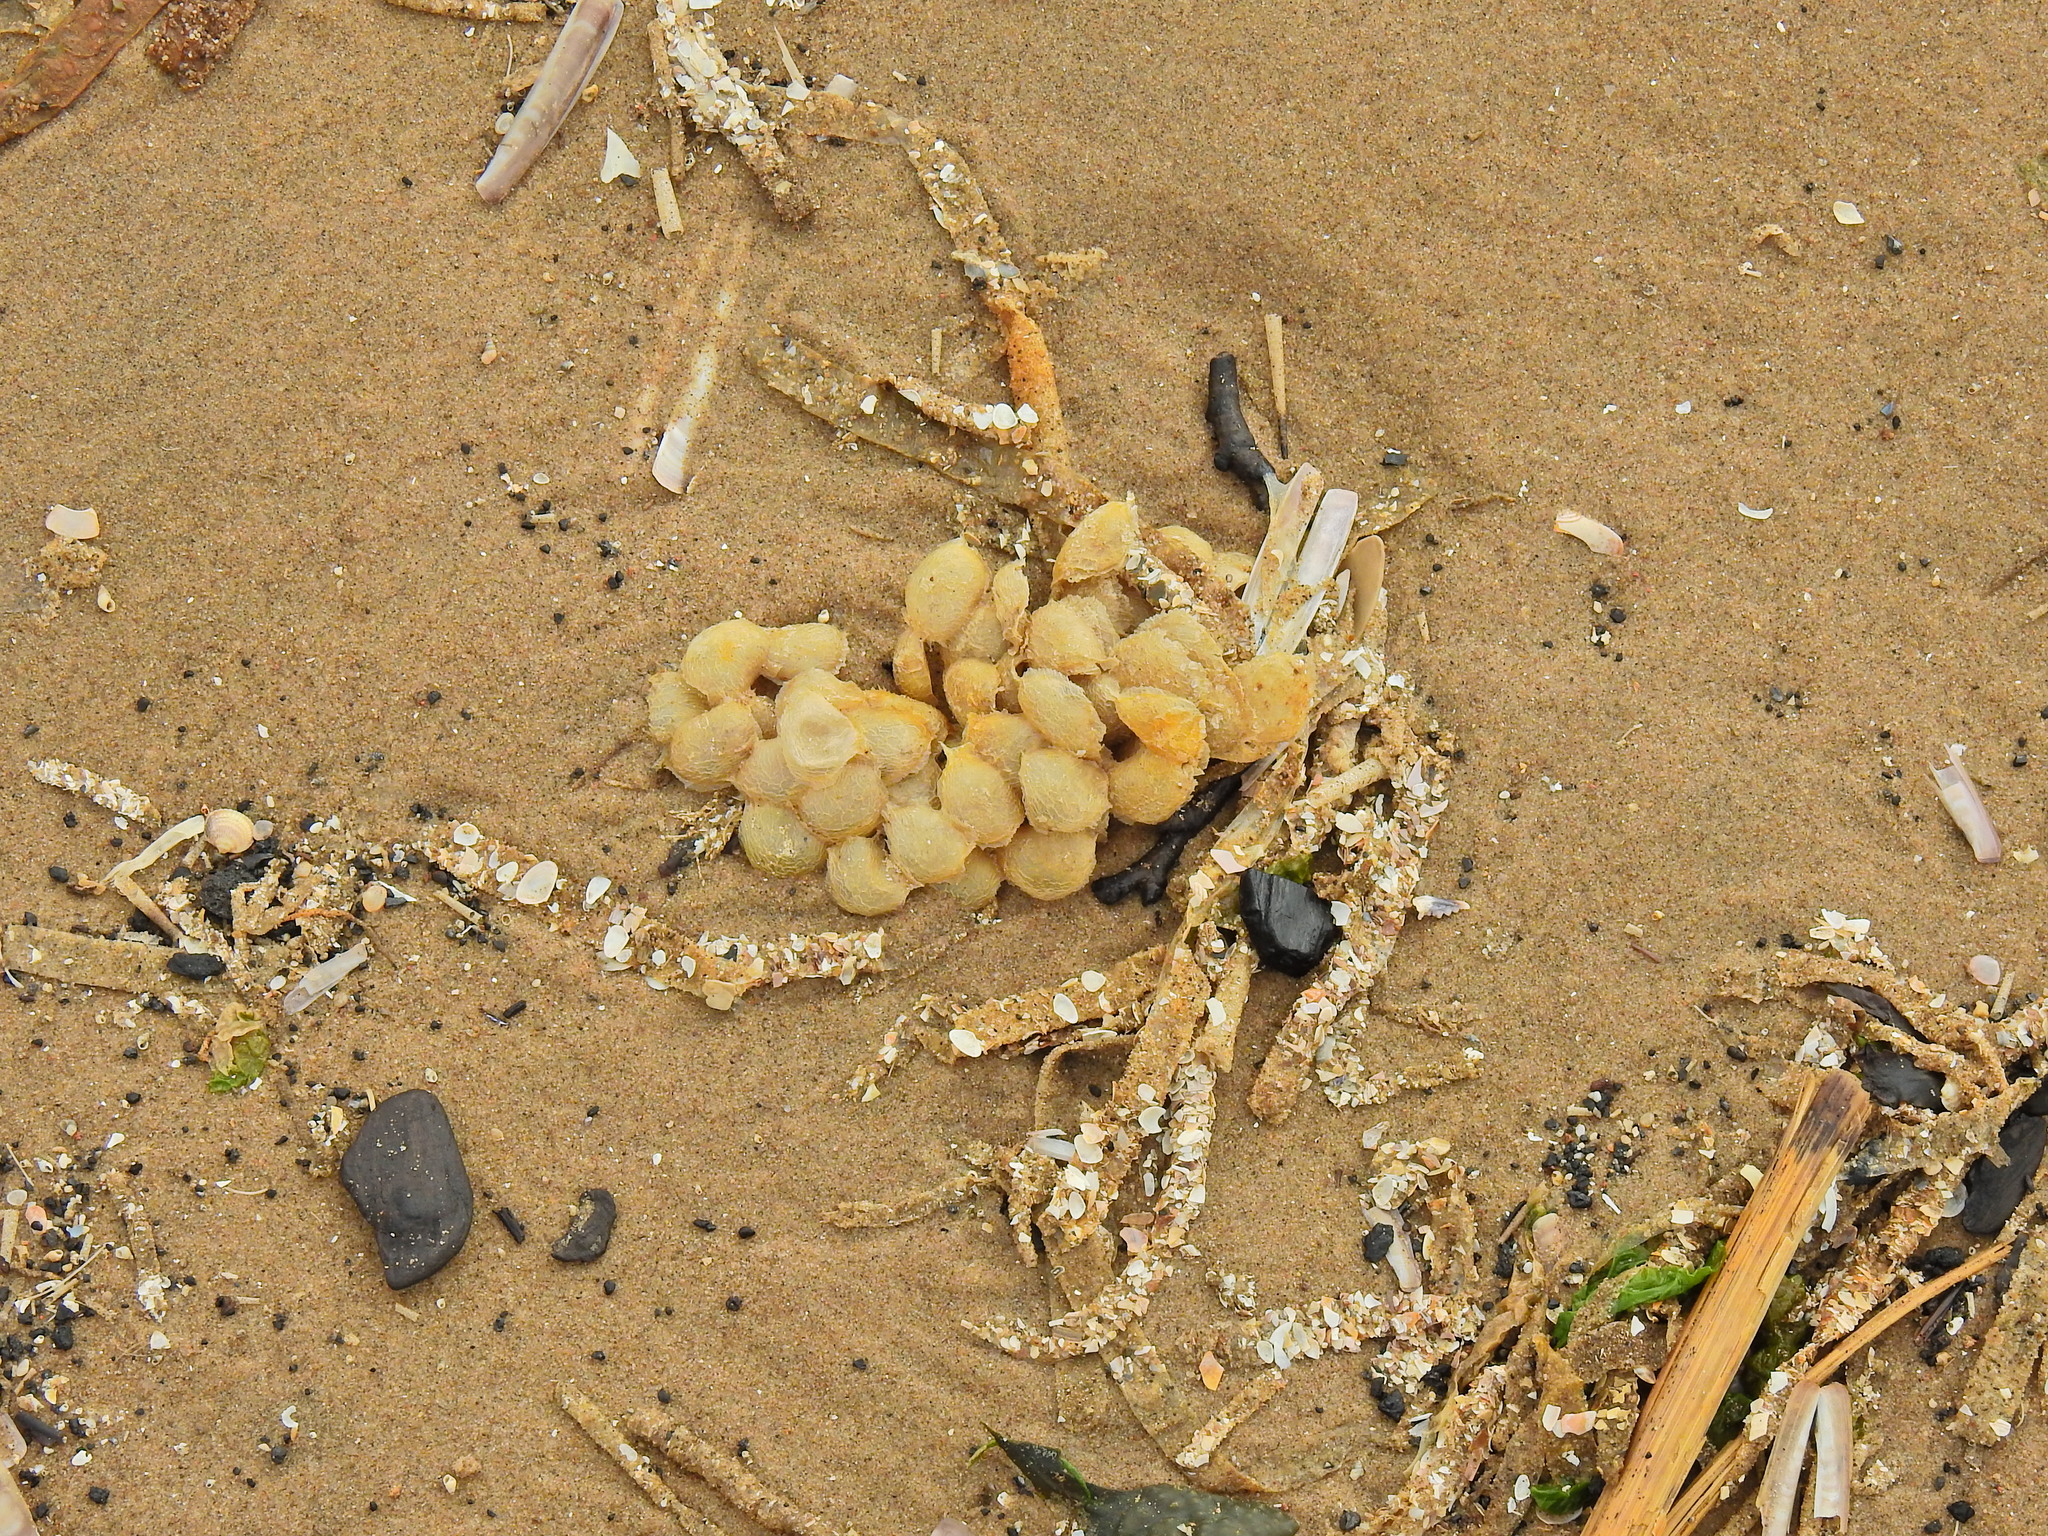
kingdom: Animalia
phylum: Mollusca
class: Gastropoda
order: Neogastropoda
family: Buccinidae
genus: Buccinum
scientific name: Buccinum undatum
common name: Common whelk
